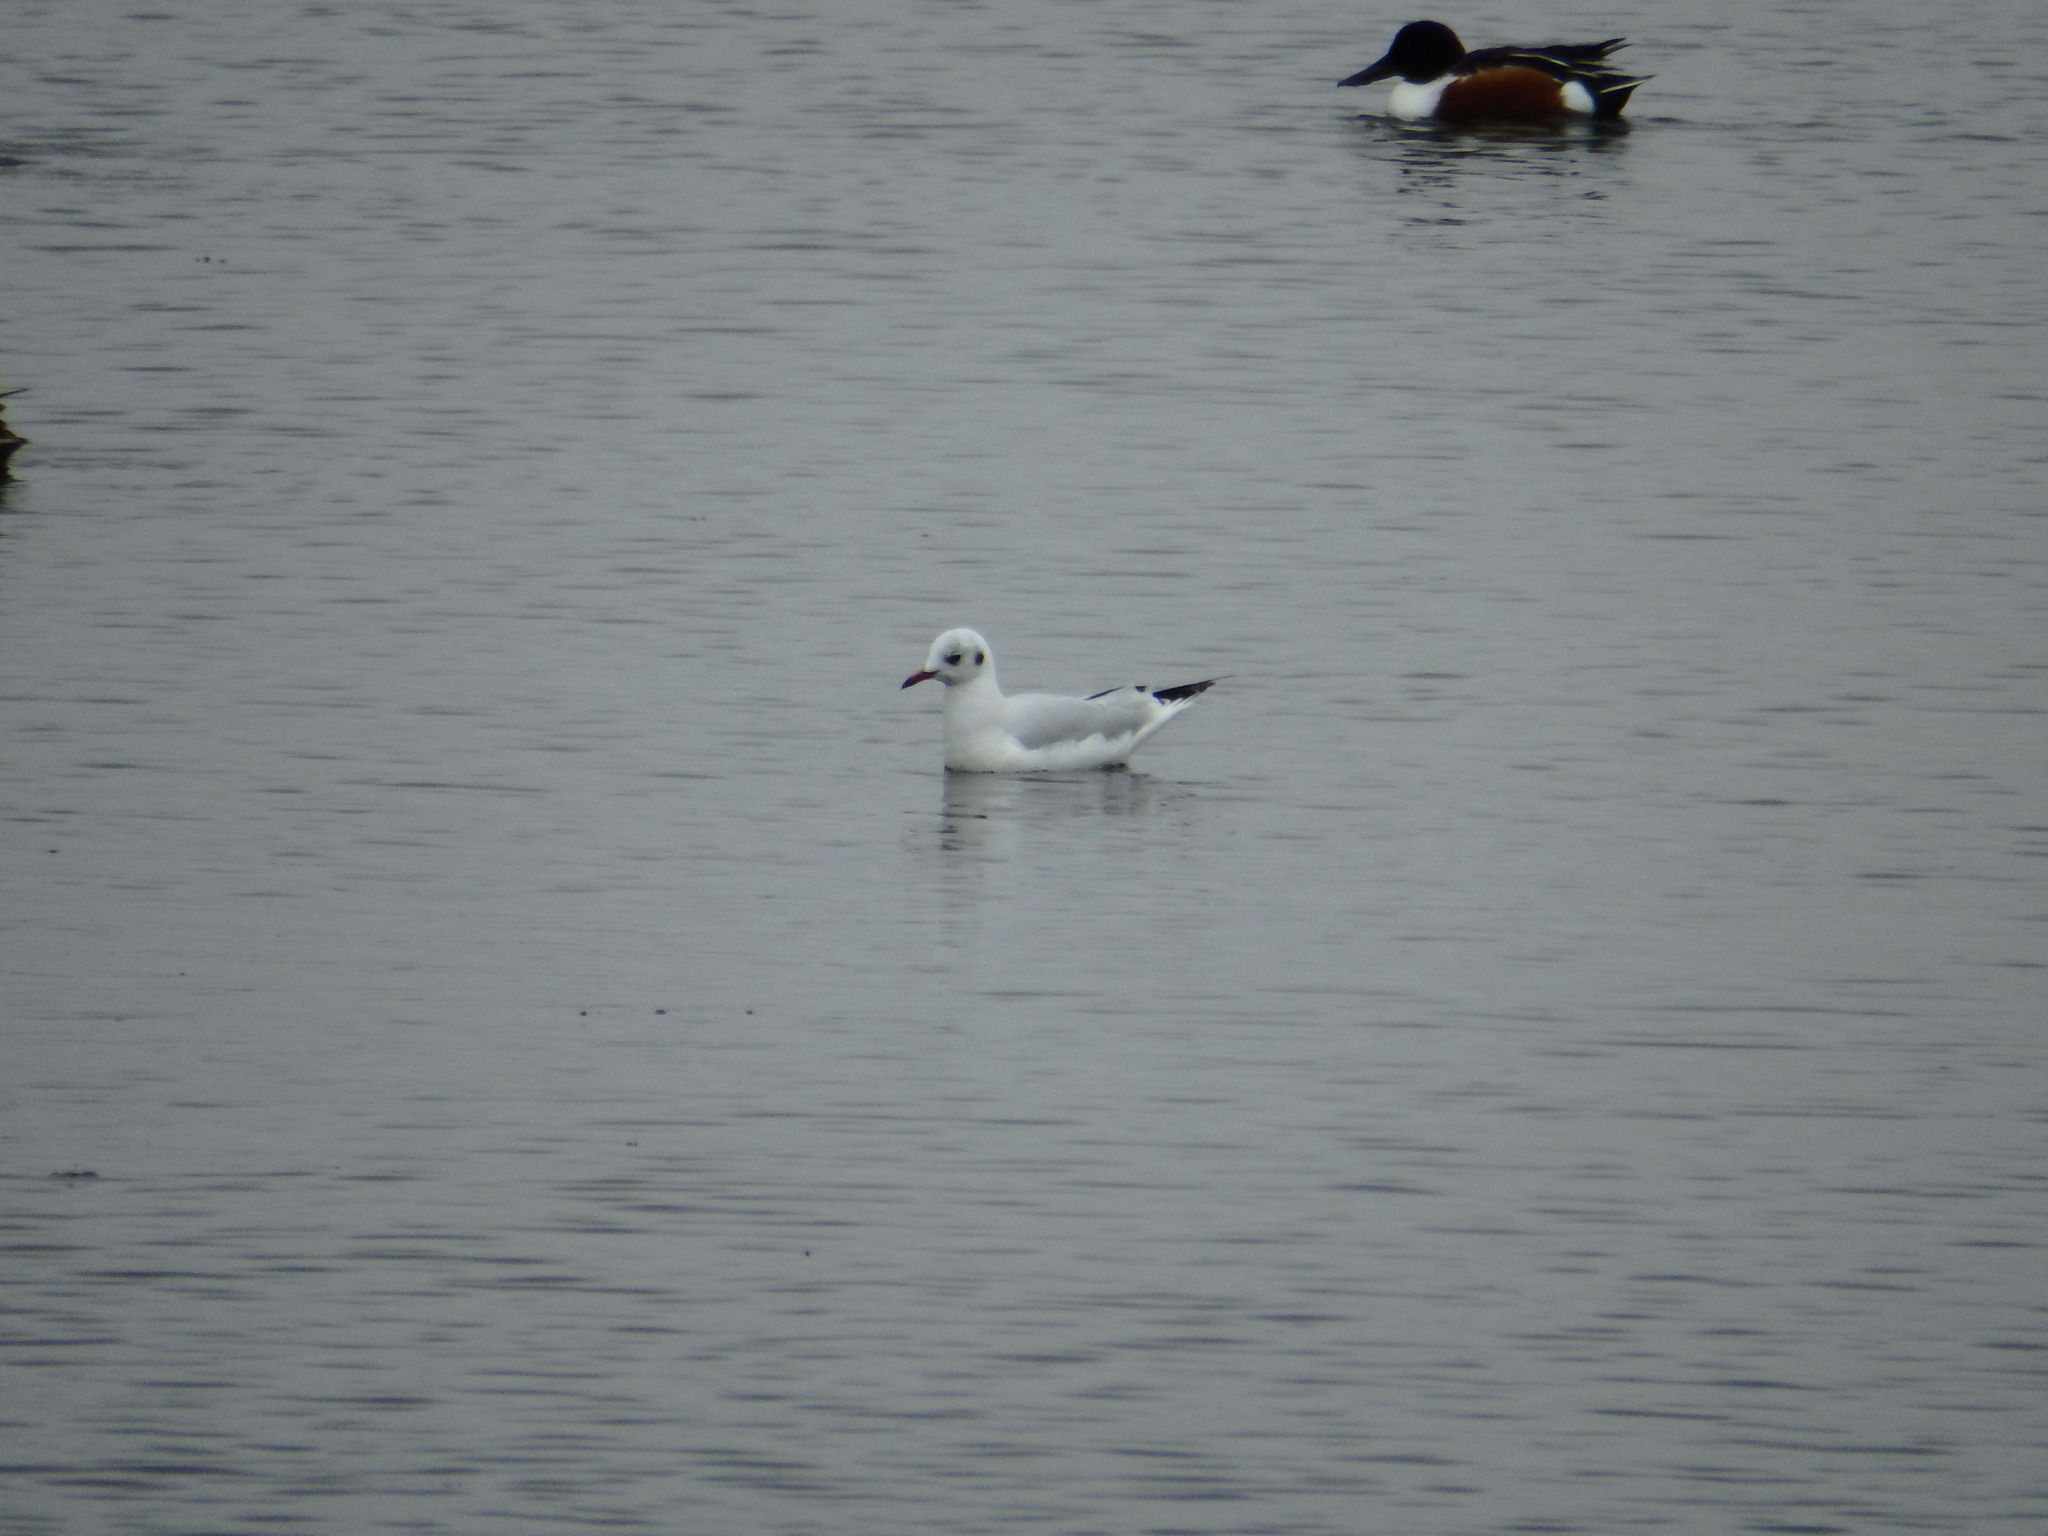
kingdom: Animalia
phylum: Chordata
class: Aves
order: Charadriiformes
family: Laridae
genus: Chroicocephalus
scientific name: Chroicocephalus ridibundus
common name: Black-headed gull
